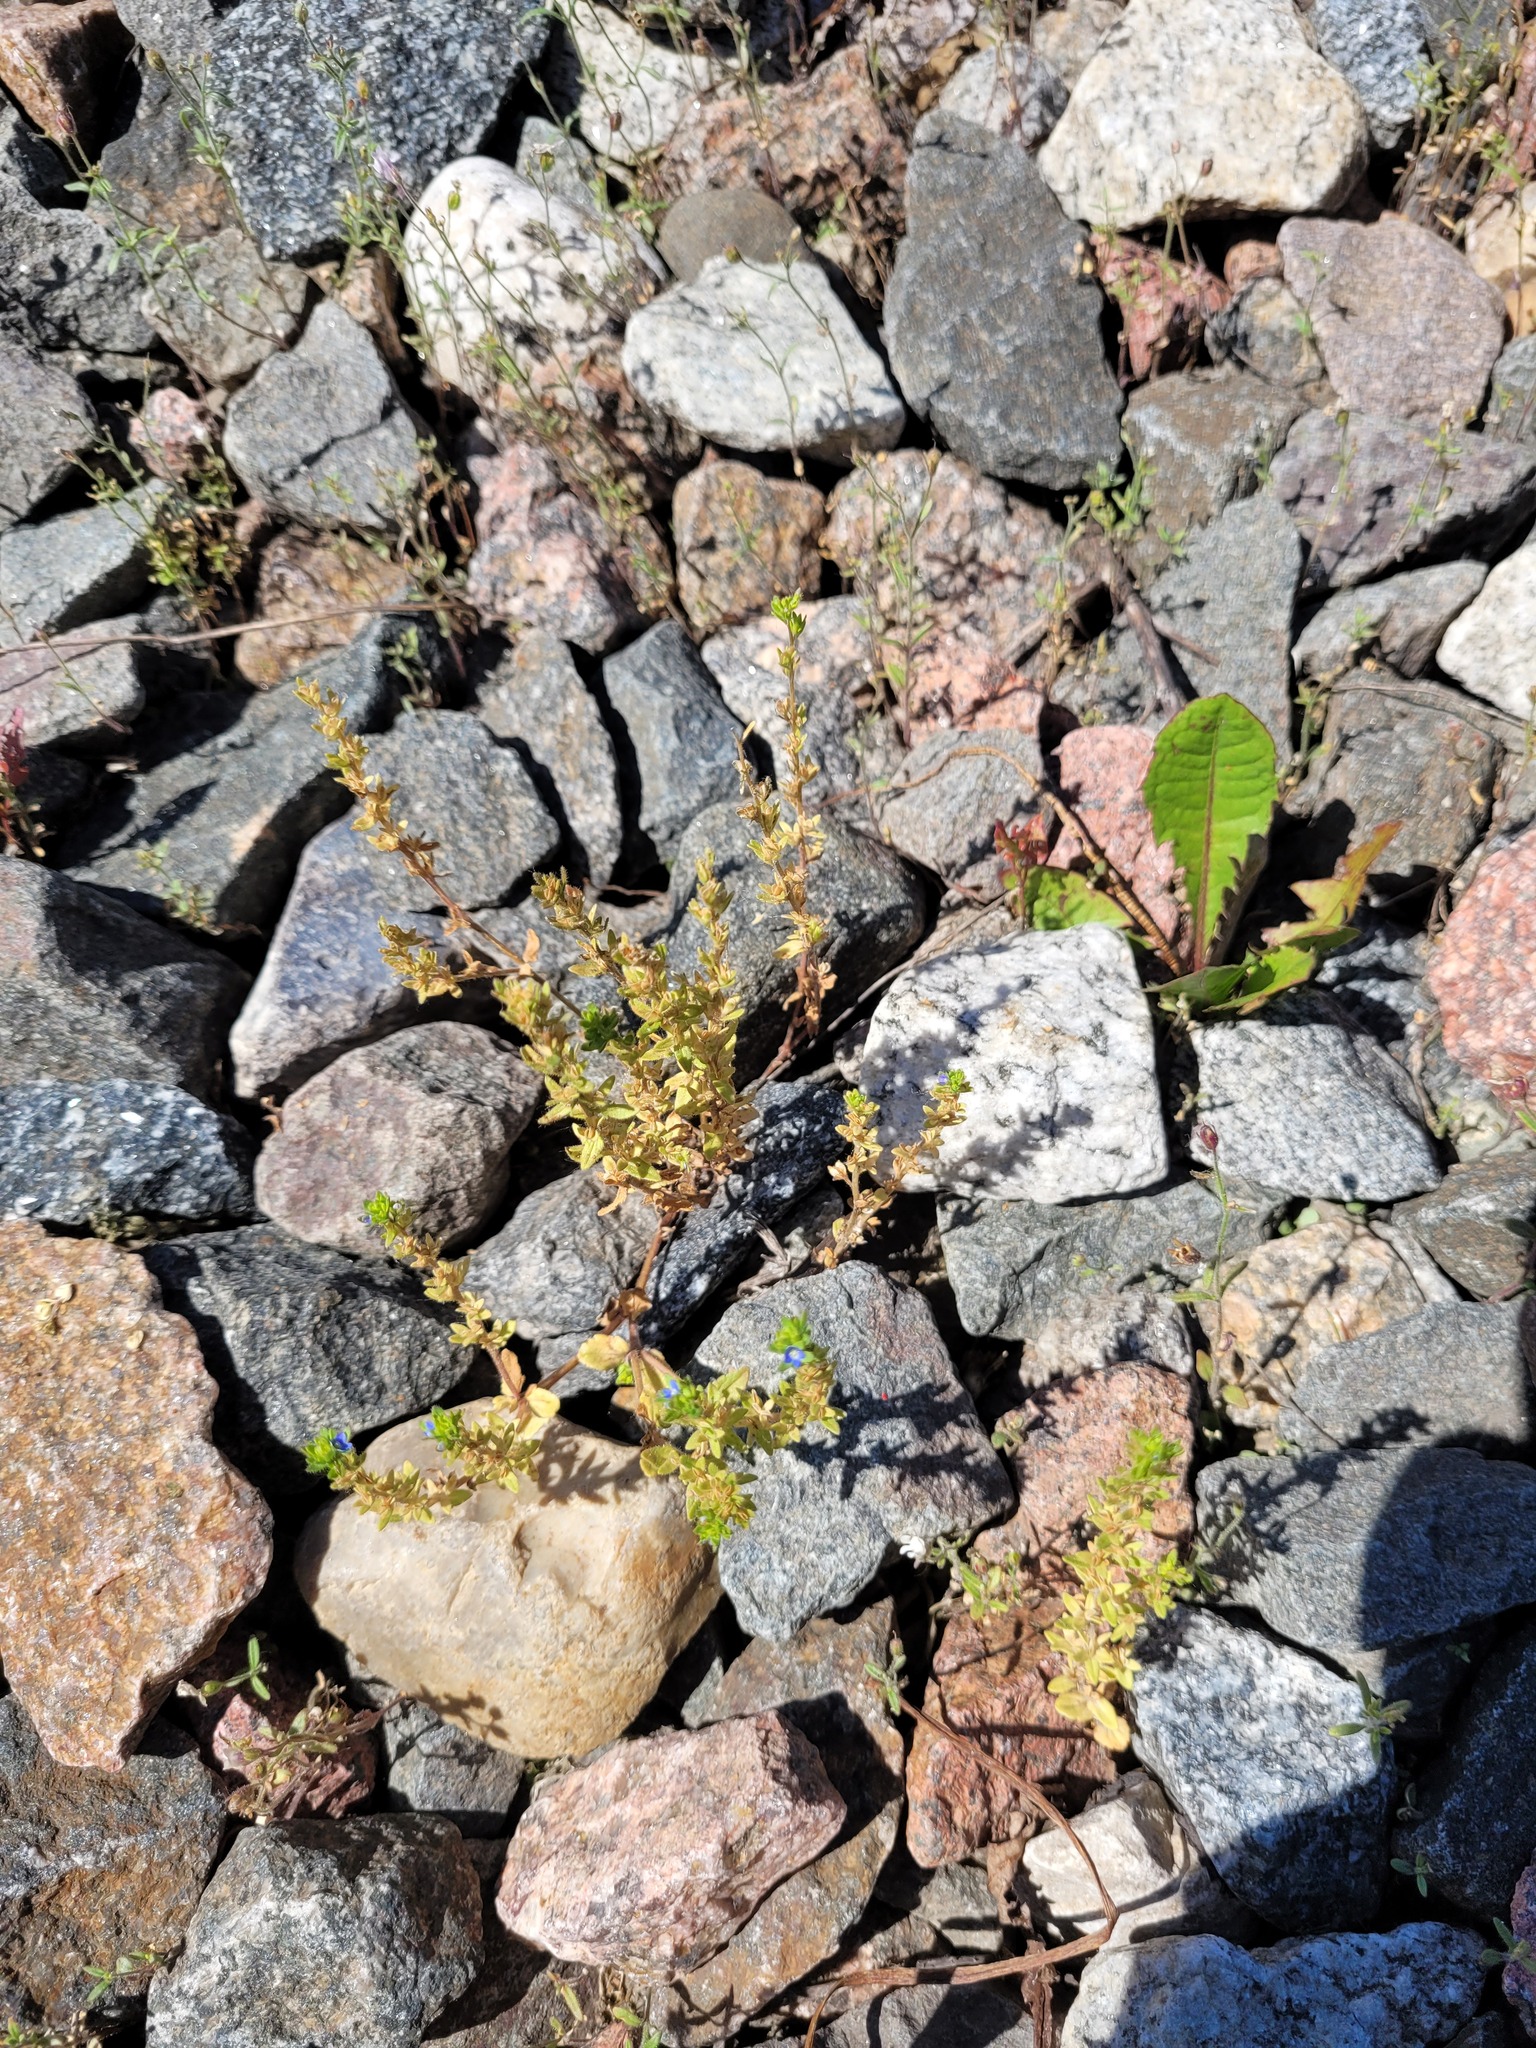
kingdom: Plantae
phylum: Tracheophyta
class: Magnoliopsida
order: Lamiales
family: Plantaginaceae
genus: Veronica
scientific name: Veronica arvensis
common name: Corn speedwell
